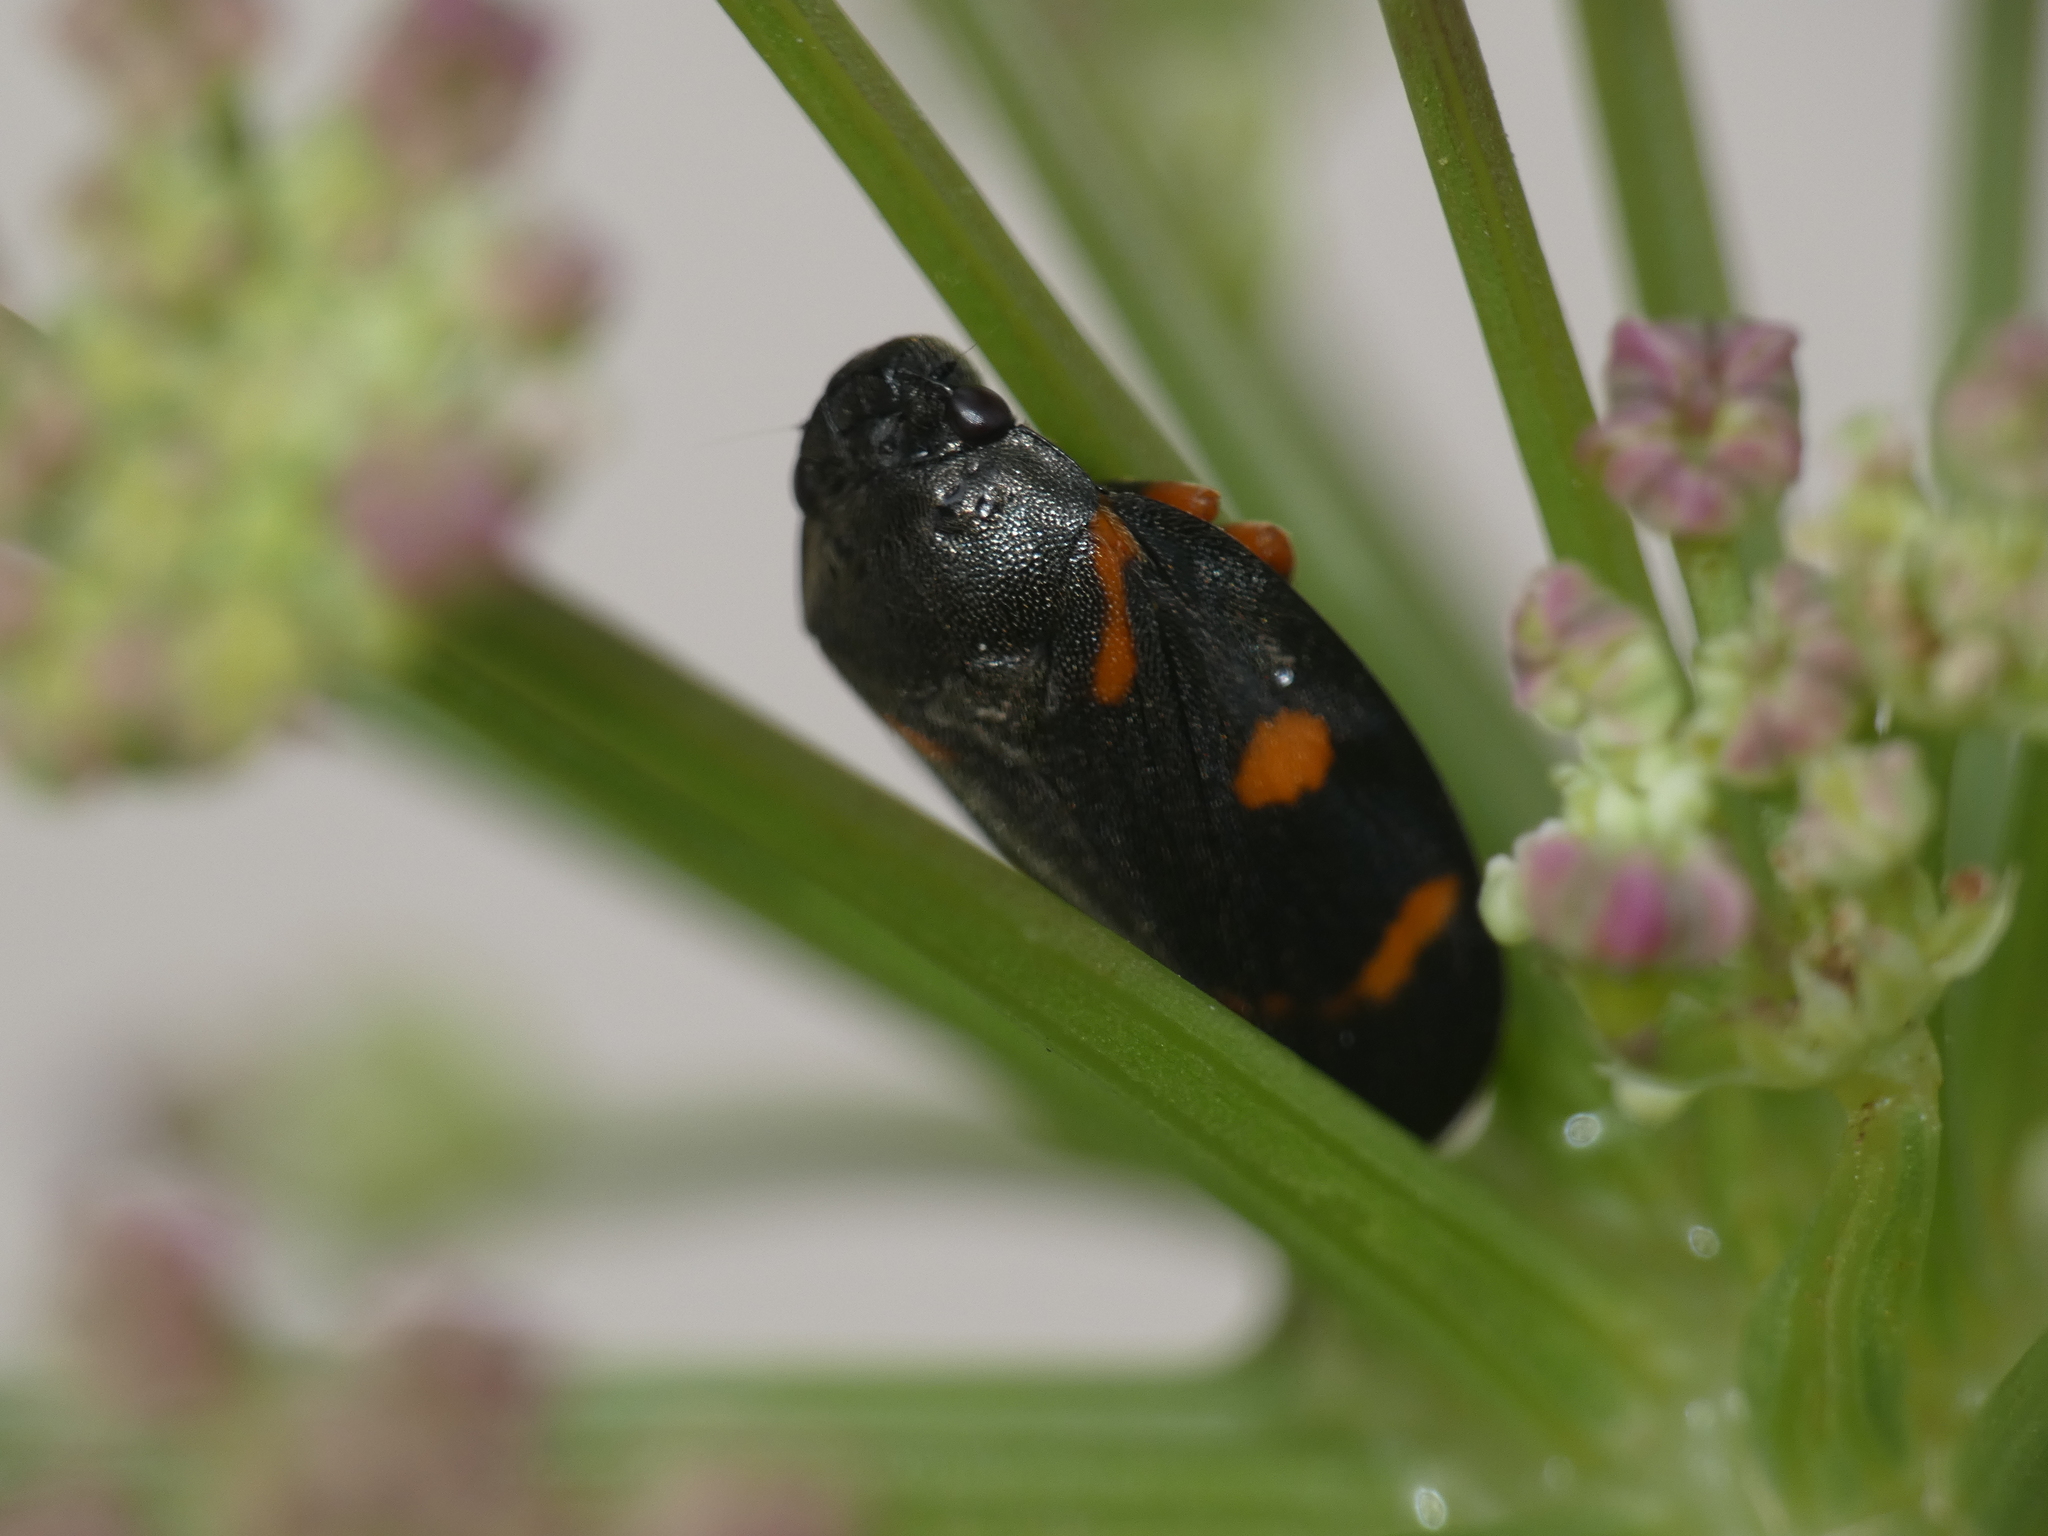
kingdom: Animalia
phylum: Arthropoda
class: Insecta
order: Hemiptera
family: Cercopidae
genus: Cercopis
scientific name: Cercopis intermedia
